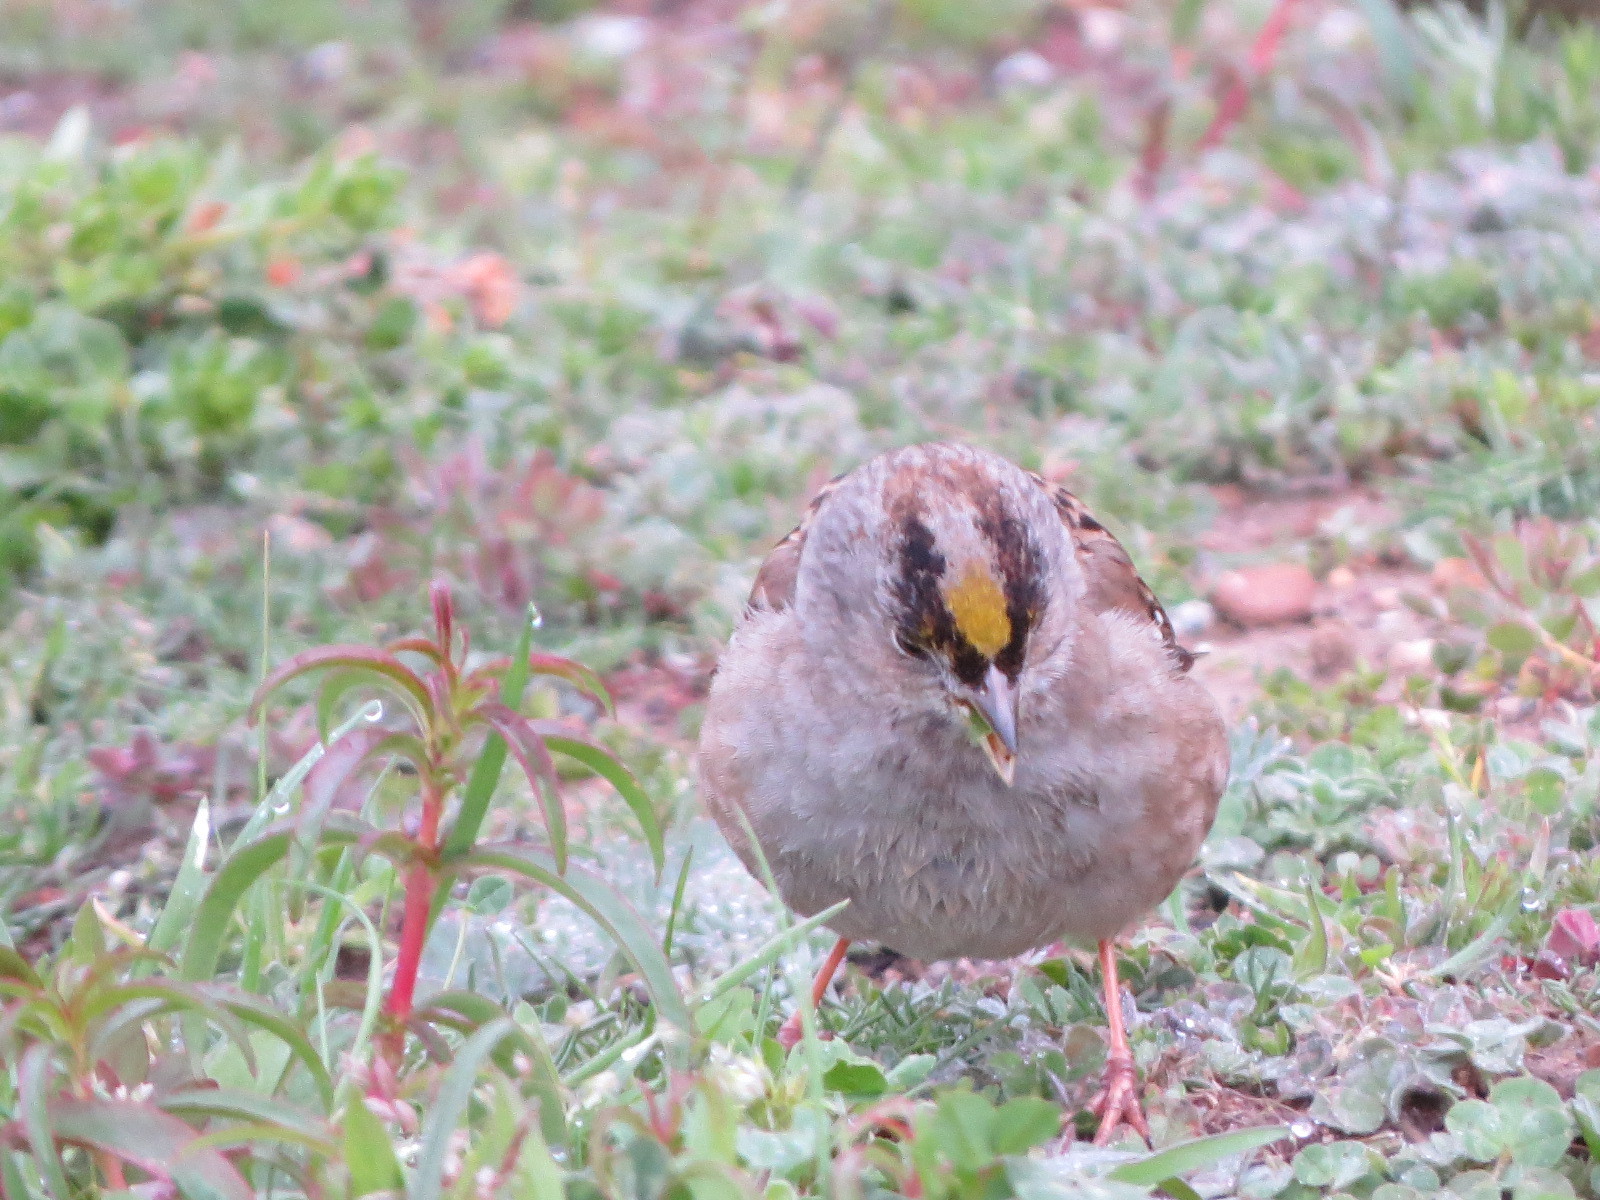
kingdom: Animalia
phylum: Chordata
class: Aves
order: Passeriformes
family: Passerellidae
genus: Zonotrichia
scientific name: Zonotrichia atricapilla
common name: Golden-crowned sparrow
